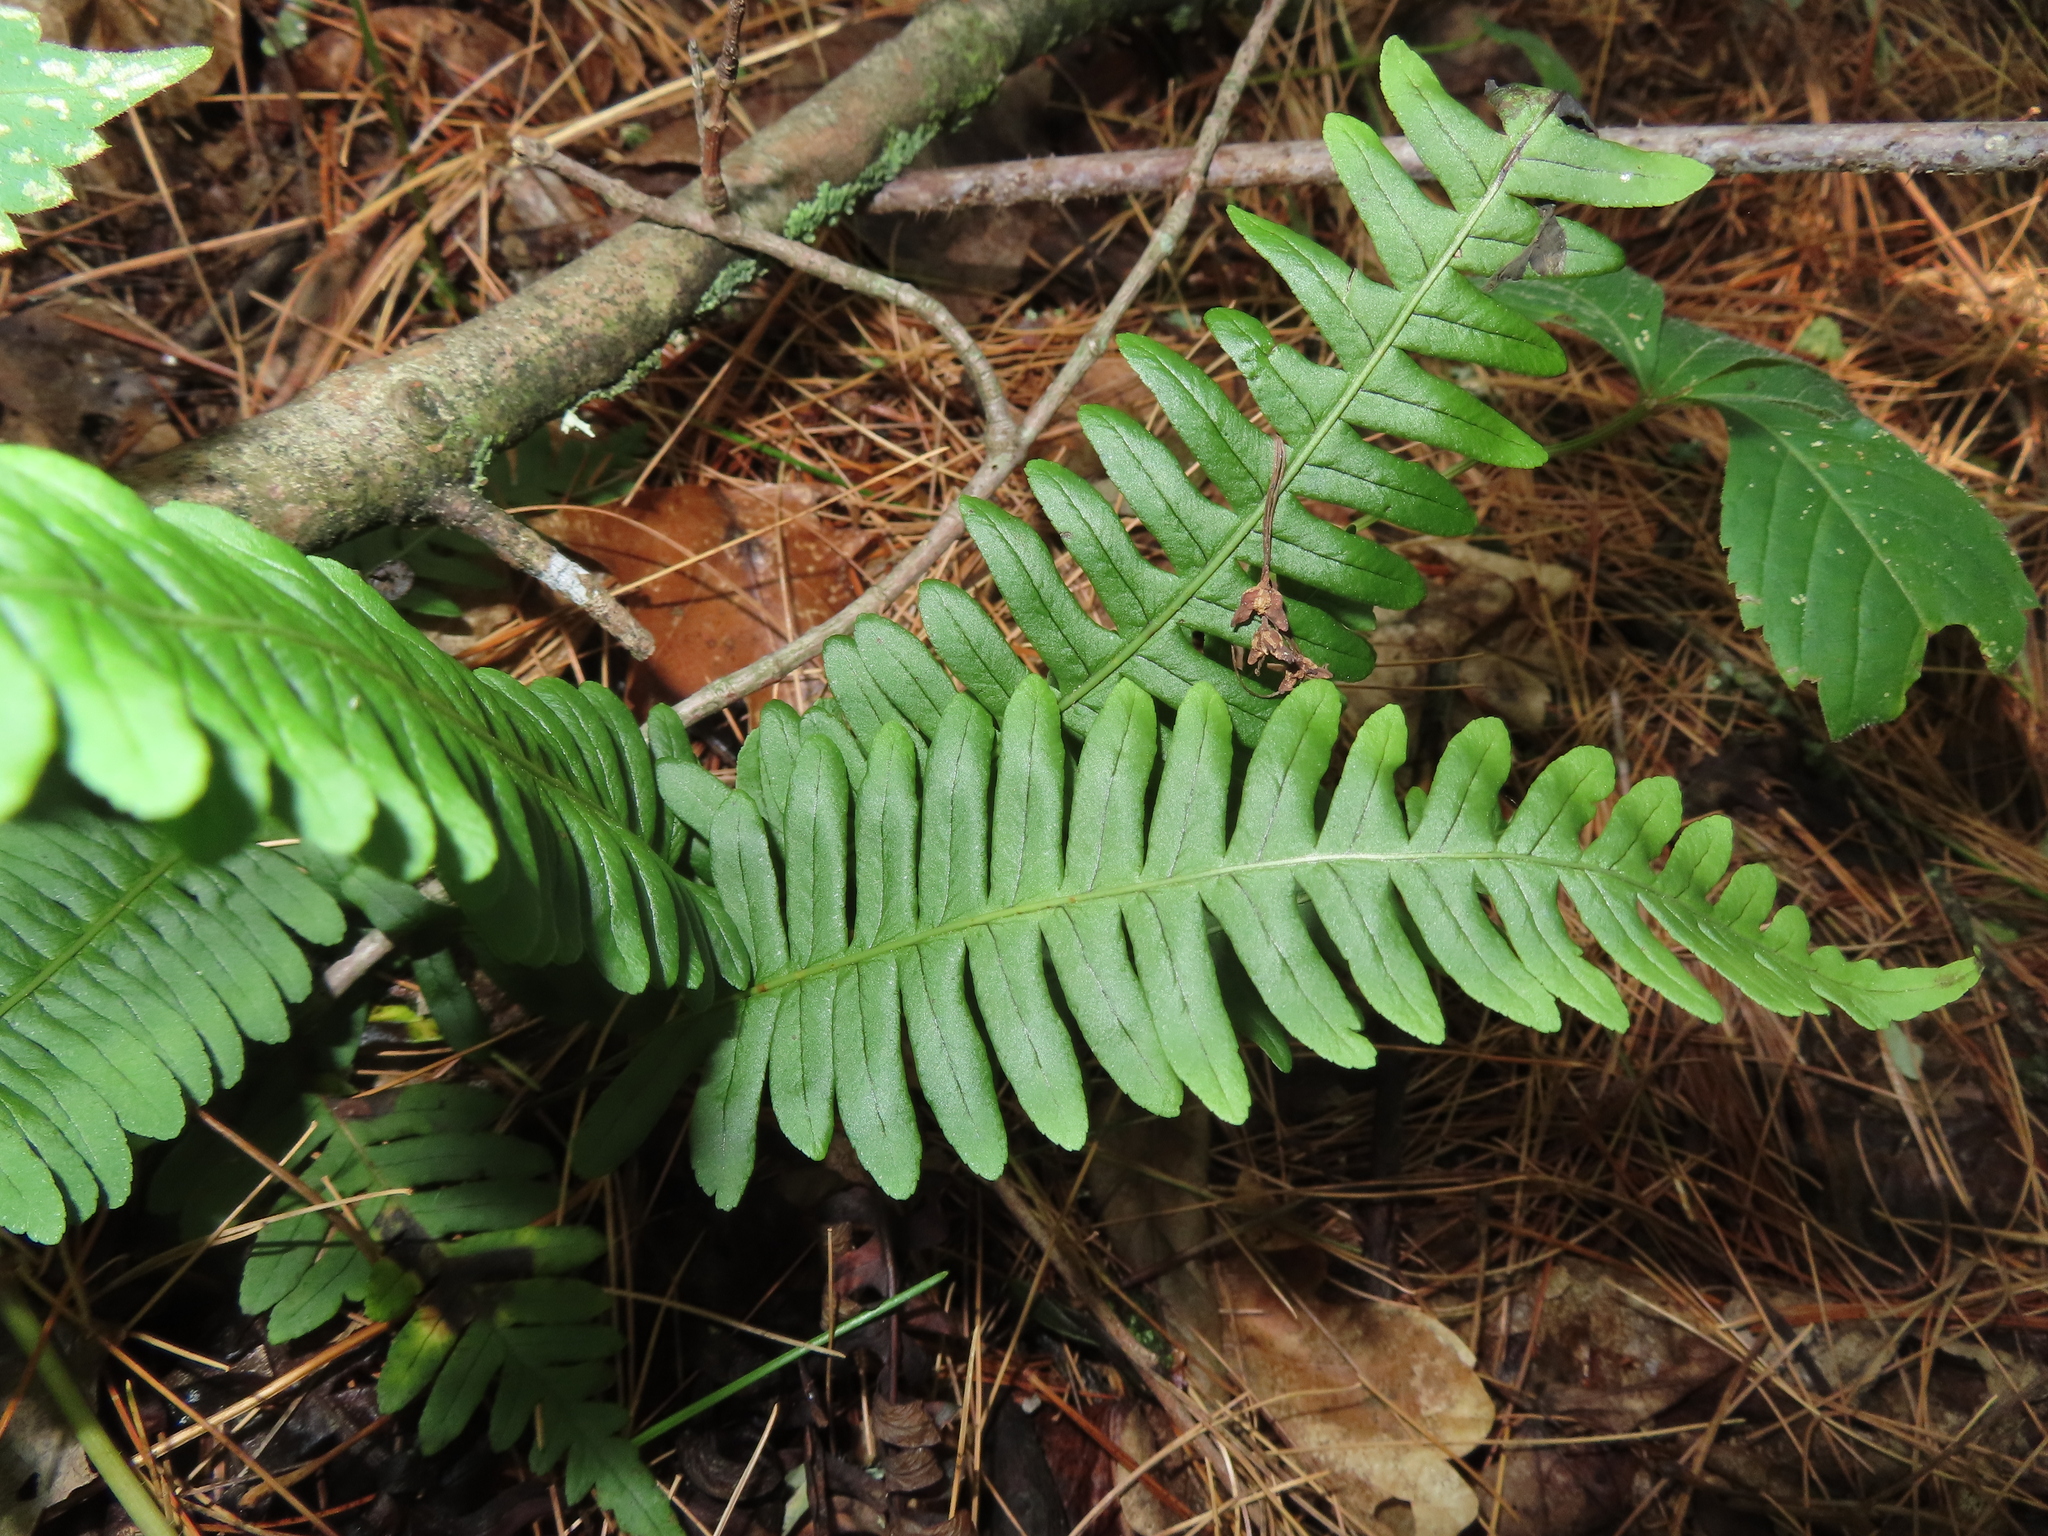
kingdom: Plantae
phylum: Tracheophyta
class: Polypodiopsida
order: Polypodiales
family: Polypodiaceae
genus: Polypodium
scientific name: Polypodium virginianum
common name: American wall fern
